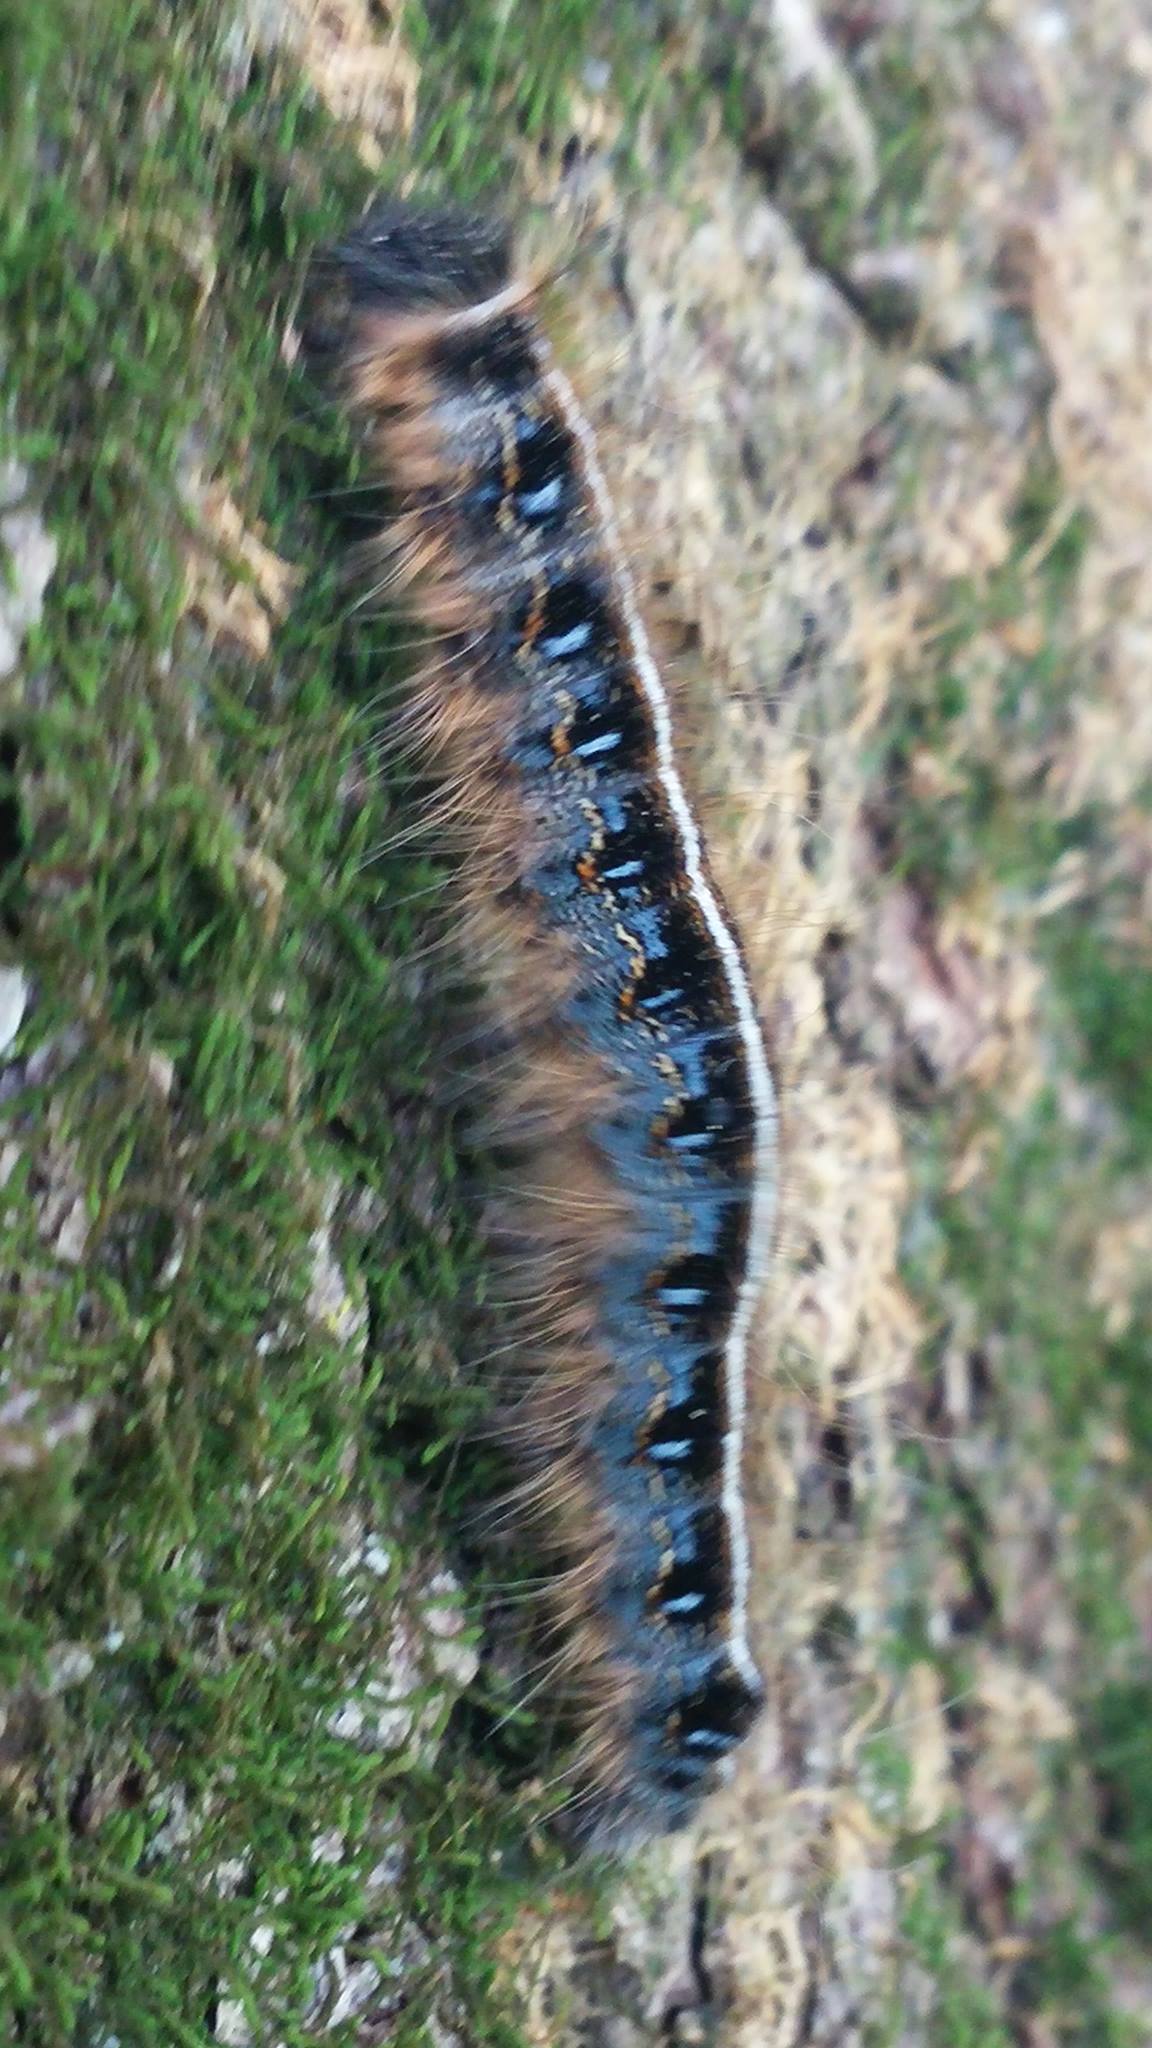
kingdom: Animalia
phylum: Arthropoda
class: Insecta
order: Lepidoptera
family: Lasiocampidae
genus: Malacosoma
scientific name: Malacosoma americana
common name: Eastern tent caterpillar moth
